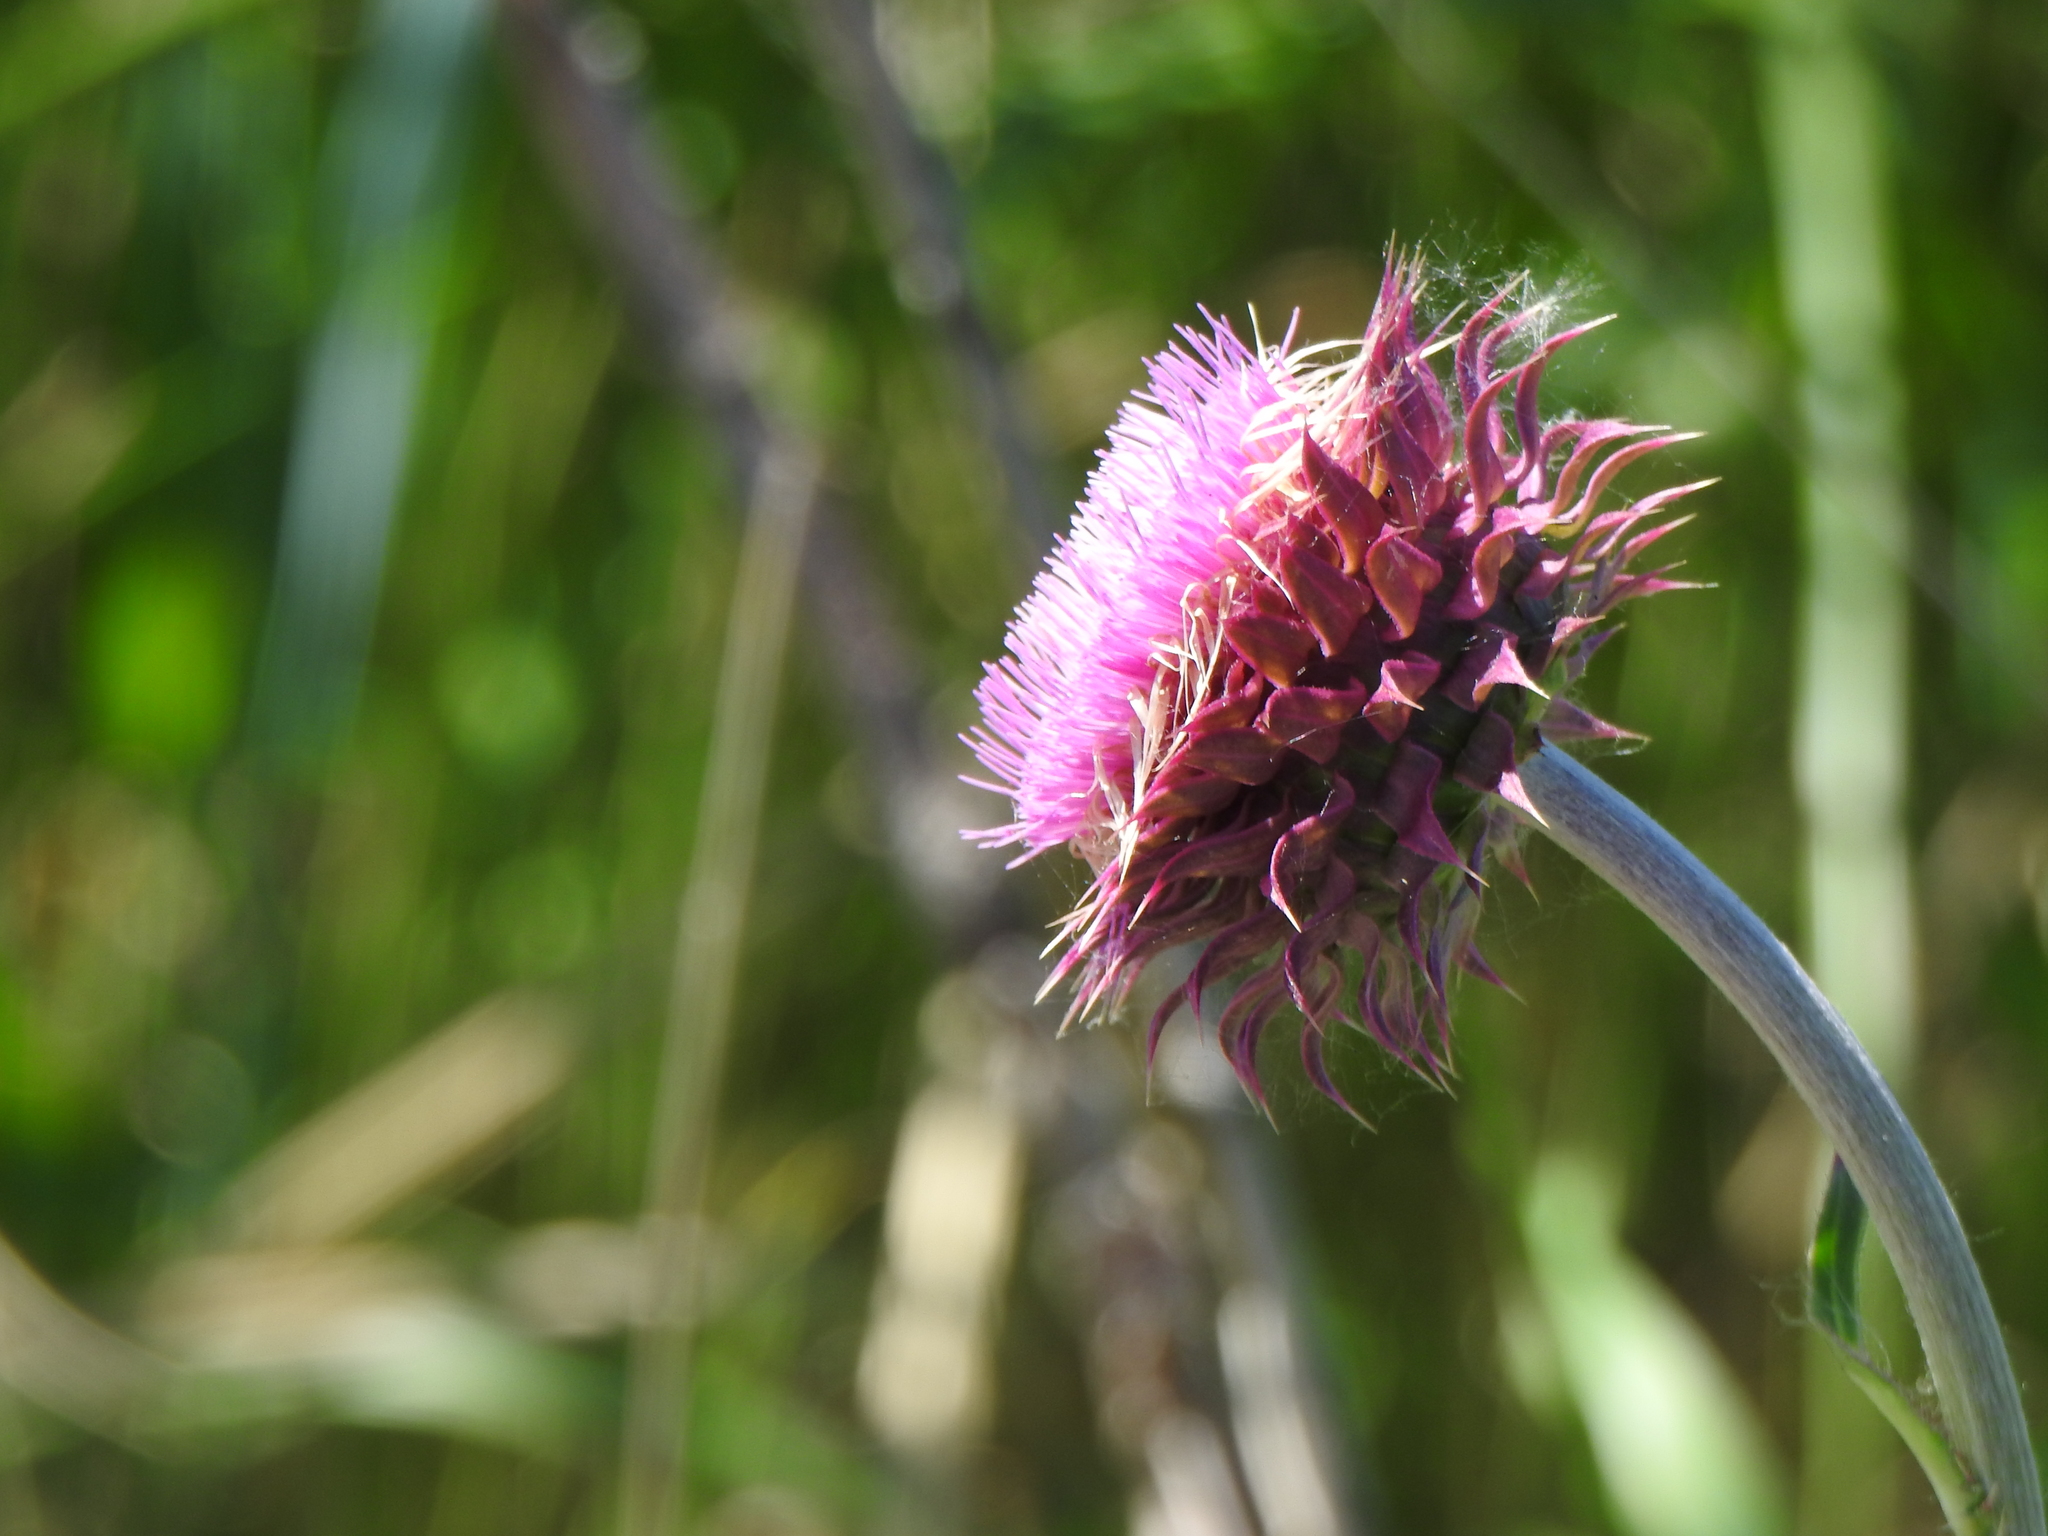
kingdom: Plantae
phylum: Tracheophyta
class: Magnoliopsida
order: Asterales
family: Asteraceae
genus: Carduus
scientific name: Carduus nutans
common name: Musk thistle
